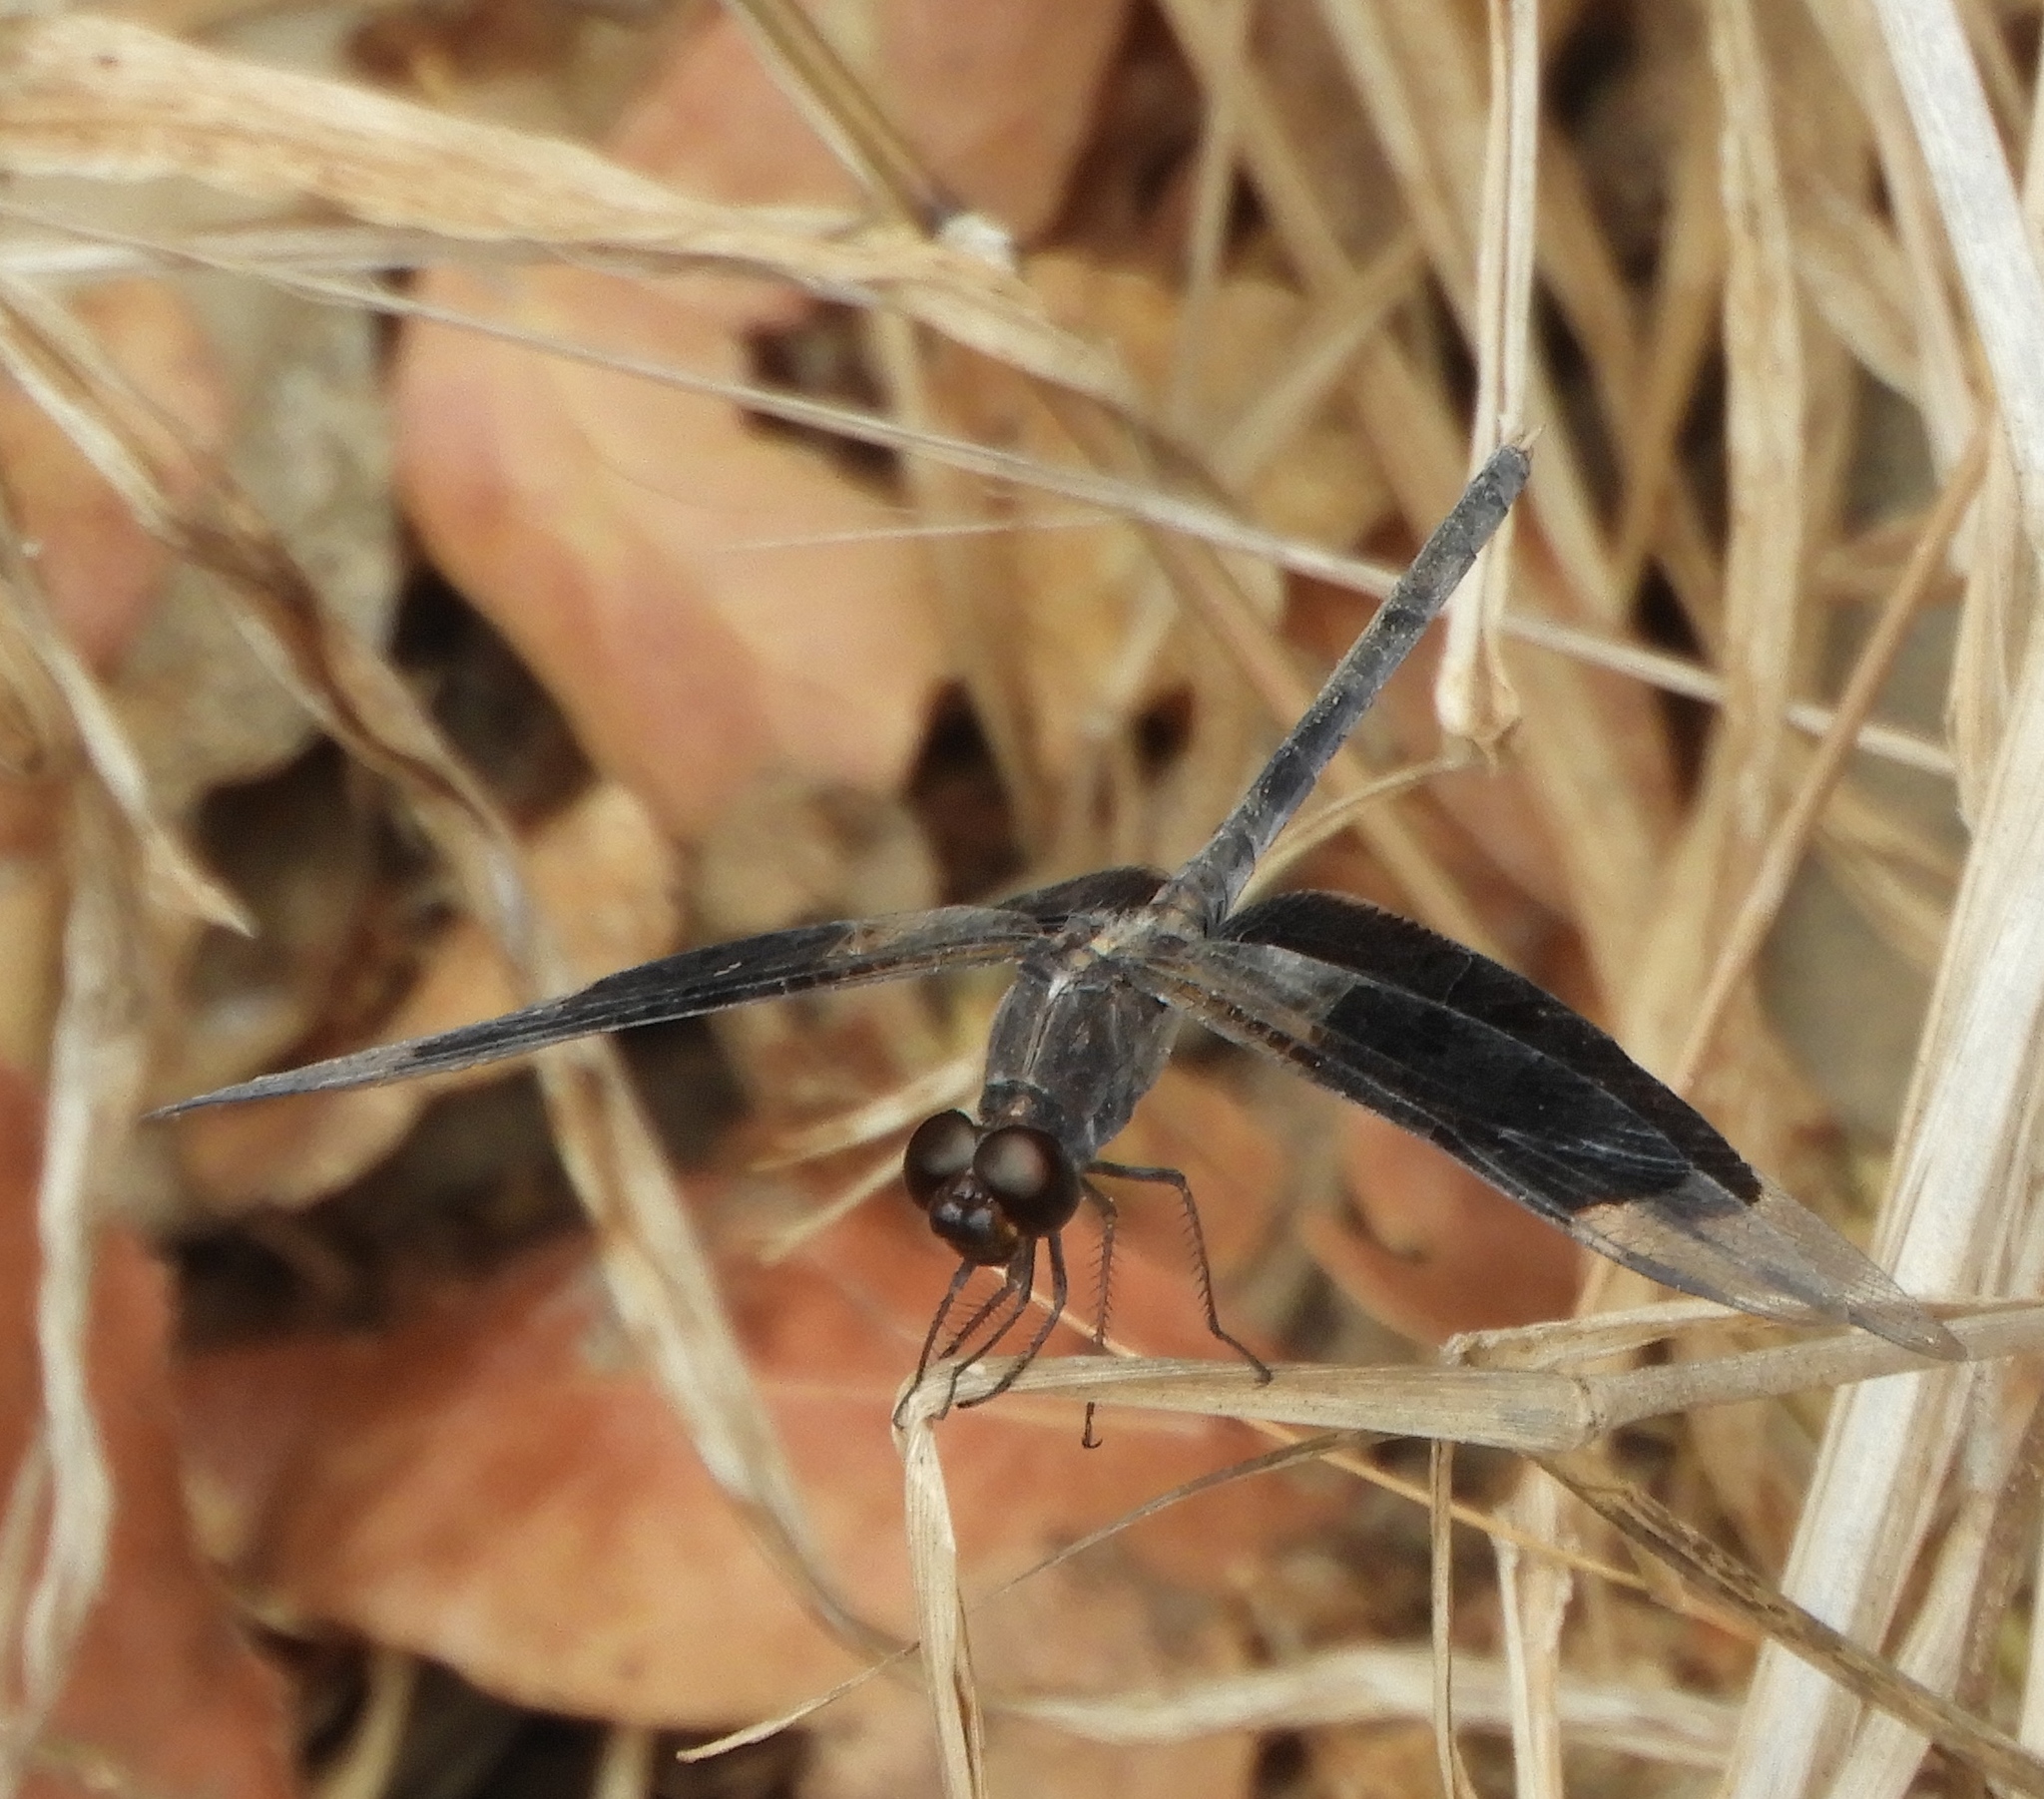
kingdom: Animalia
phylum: Arthropoda
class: Insecta
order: Odonata
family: Libellulidae
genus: Erythrodiplax
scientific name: Erythrodiplax funerea
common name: Black-winged dragonlet
